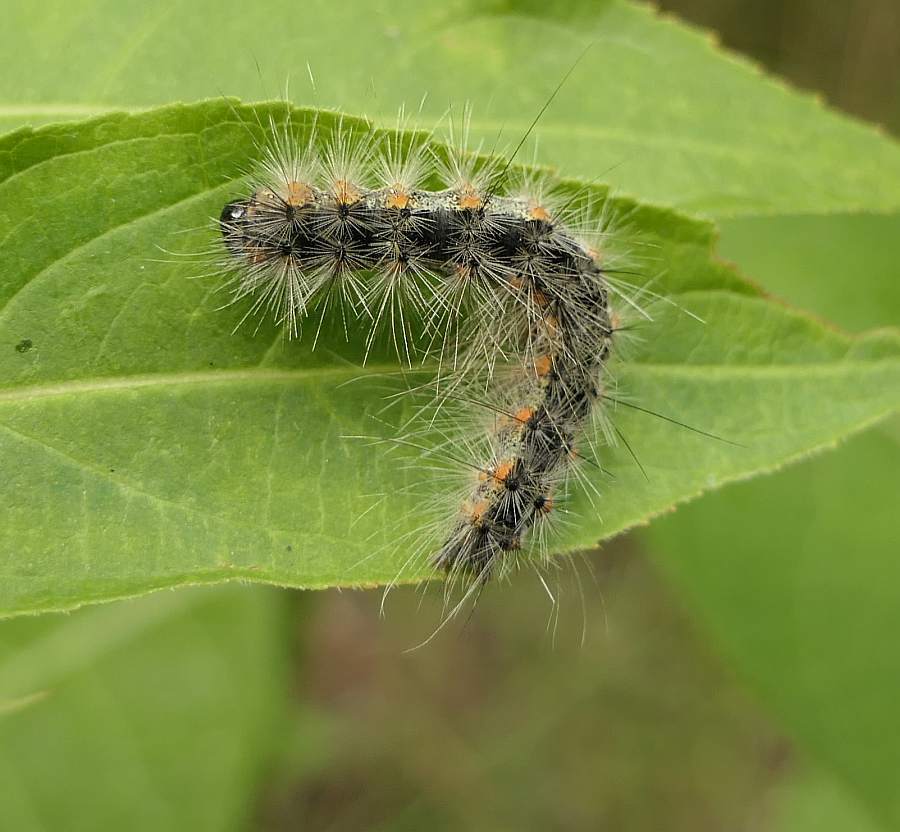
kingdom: Animalia
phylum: Arthropoda
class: Insecta
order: Lepidoptera
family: Erebidae
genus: Hyphantria
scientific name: Hyphantria cunea
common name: American white moth
